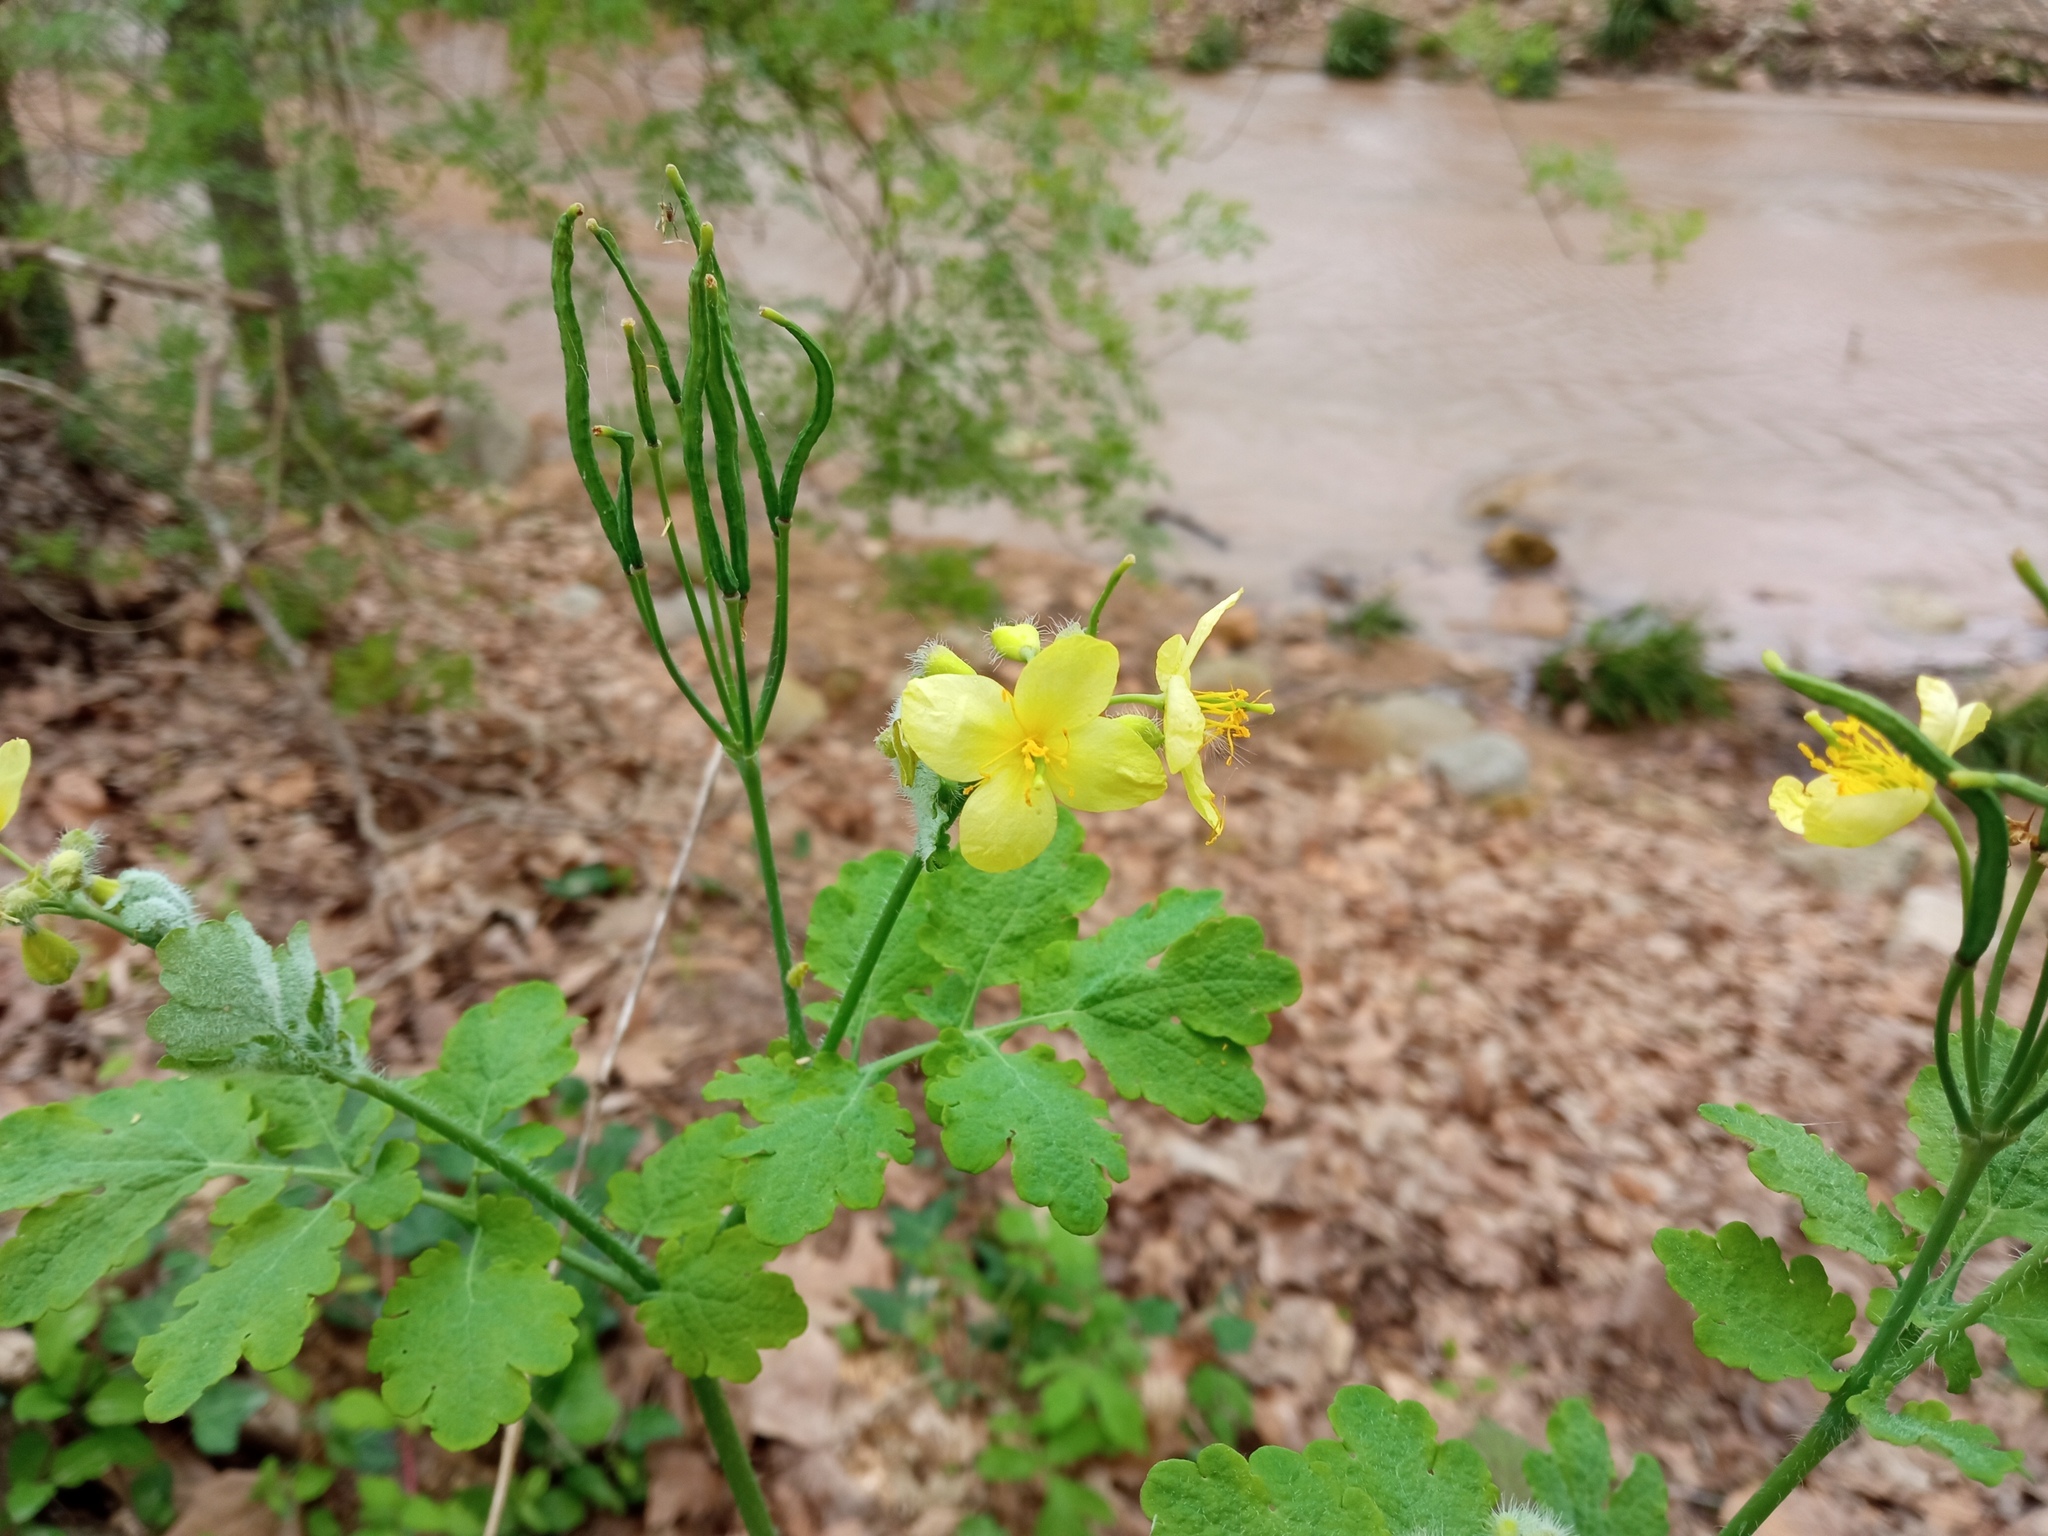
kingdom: Plantae
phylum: Tracheophyta
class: Magnoliopsida
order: Ranunculales
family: Papaveraceae
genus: Chelidonium
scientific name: Chelidonium majus
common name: Greater celandine
